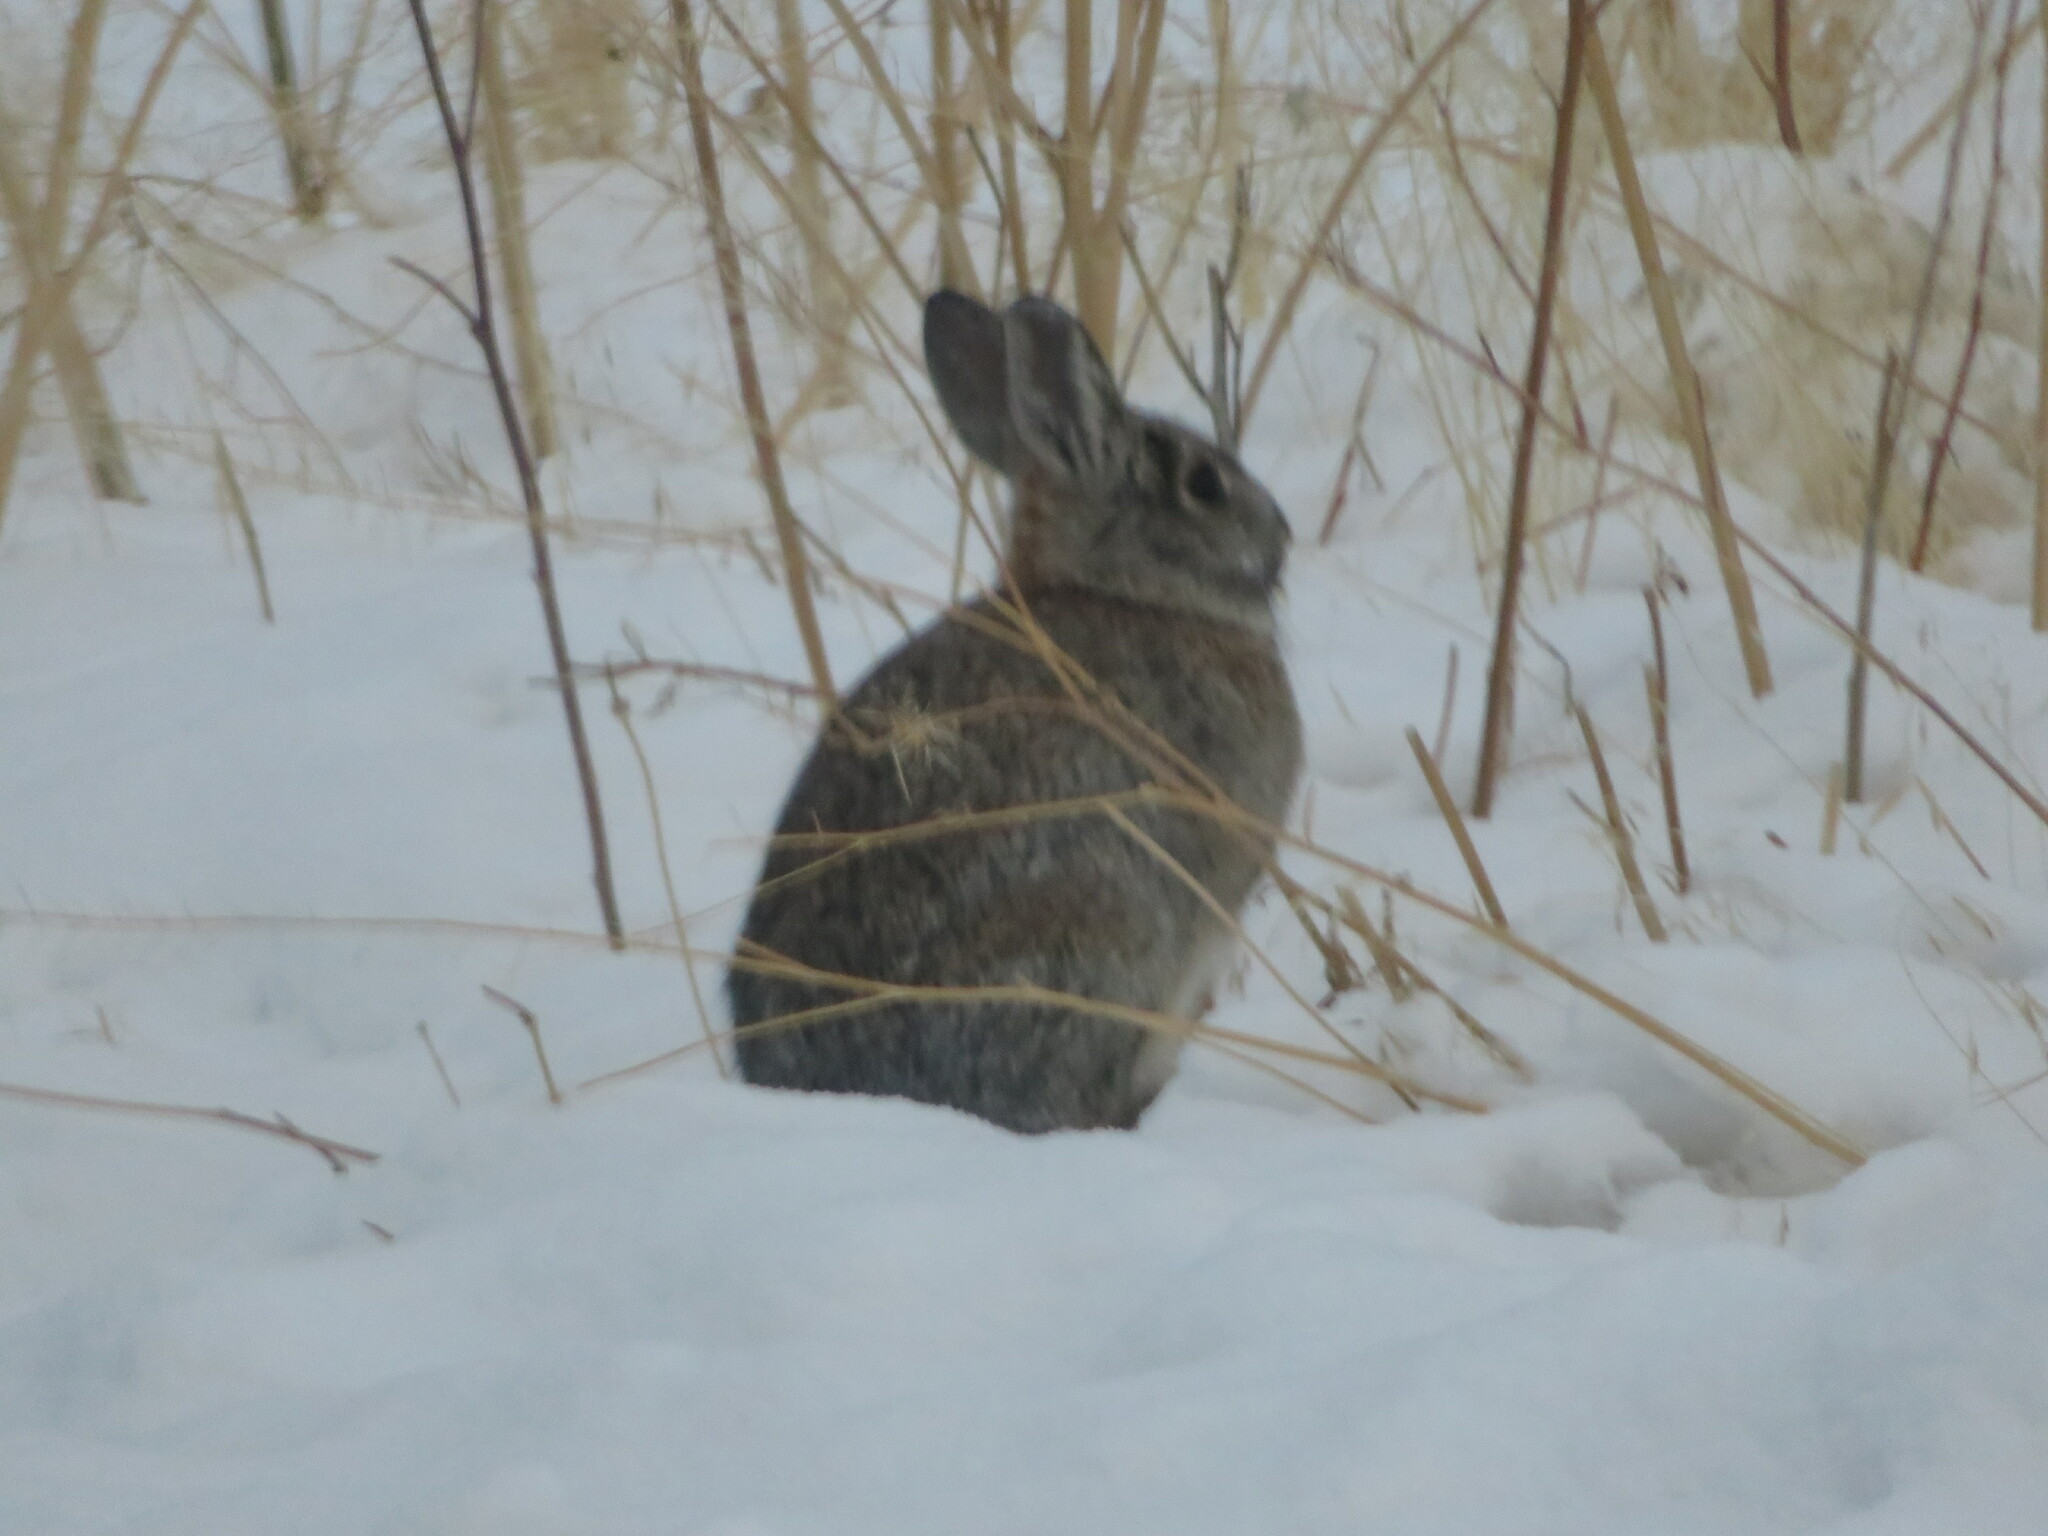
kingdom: Animalia
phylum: Chordata
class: Mammalia
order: Lagomorpha
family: Leporidae
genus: Sylvilagus
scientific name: Sylvilagus nuttallii
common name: Mountain cottontail
